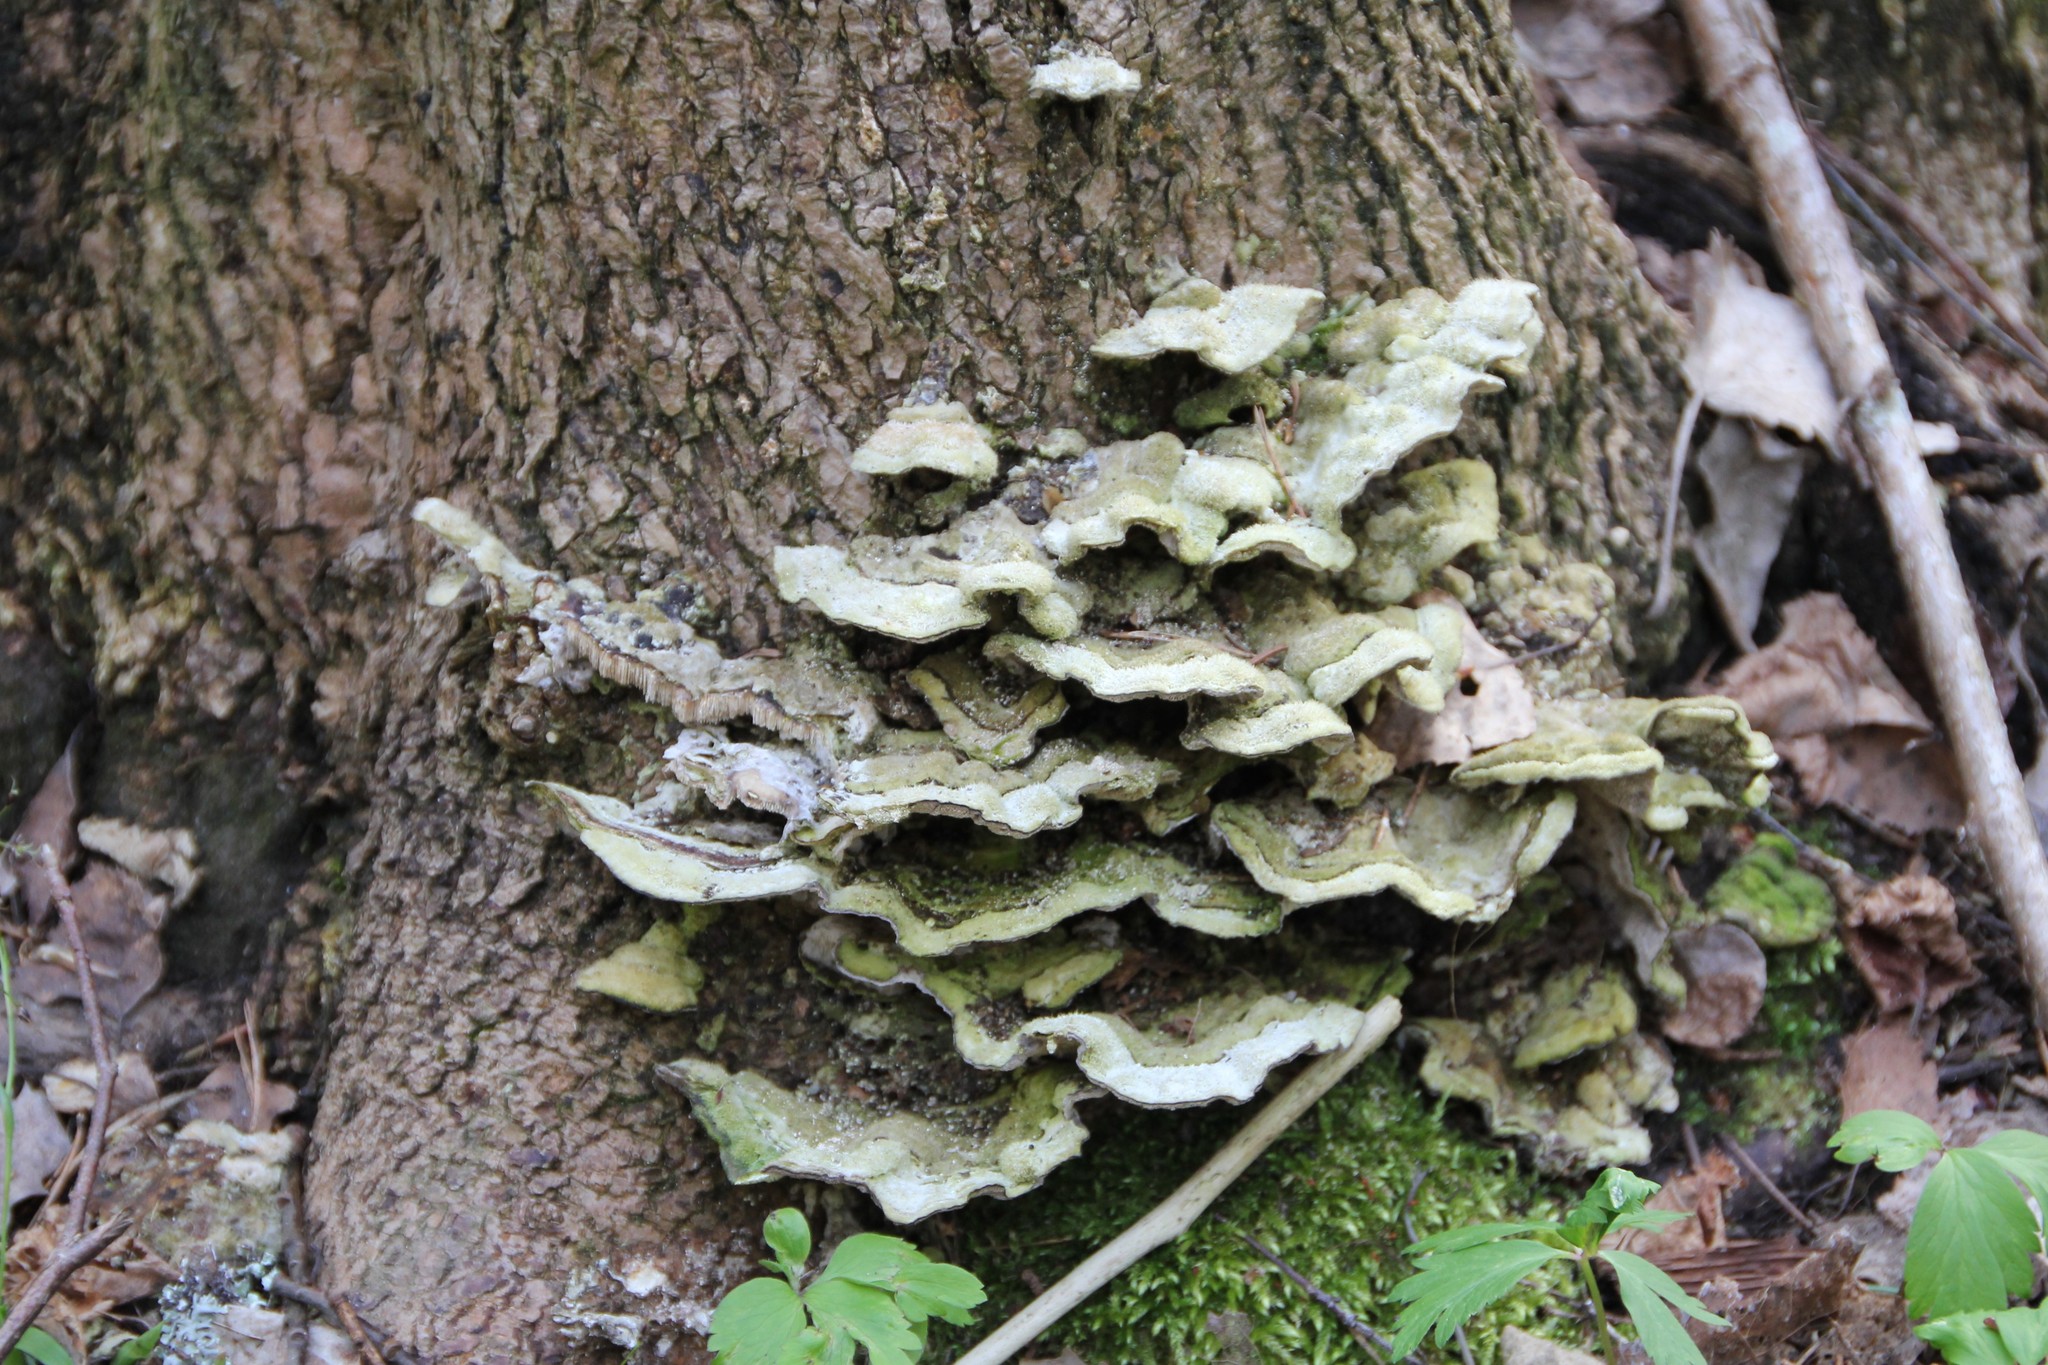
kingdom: Fungi
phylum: Basidiomycota
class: Agaricomycetes
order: Polyporales
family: Cerrenaceae
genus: Cerrena
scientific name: Cerrena unicolor
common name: Mossy maze polypore
